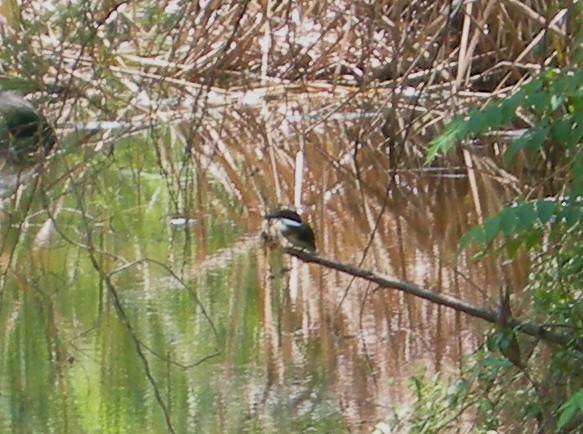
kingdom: Animalia
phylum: Chordata
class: Aves
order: Coraciiformes
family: Alcedinidae
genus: Chloroceryle
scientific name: Chloroceryle americana
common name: Green kingfisher
